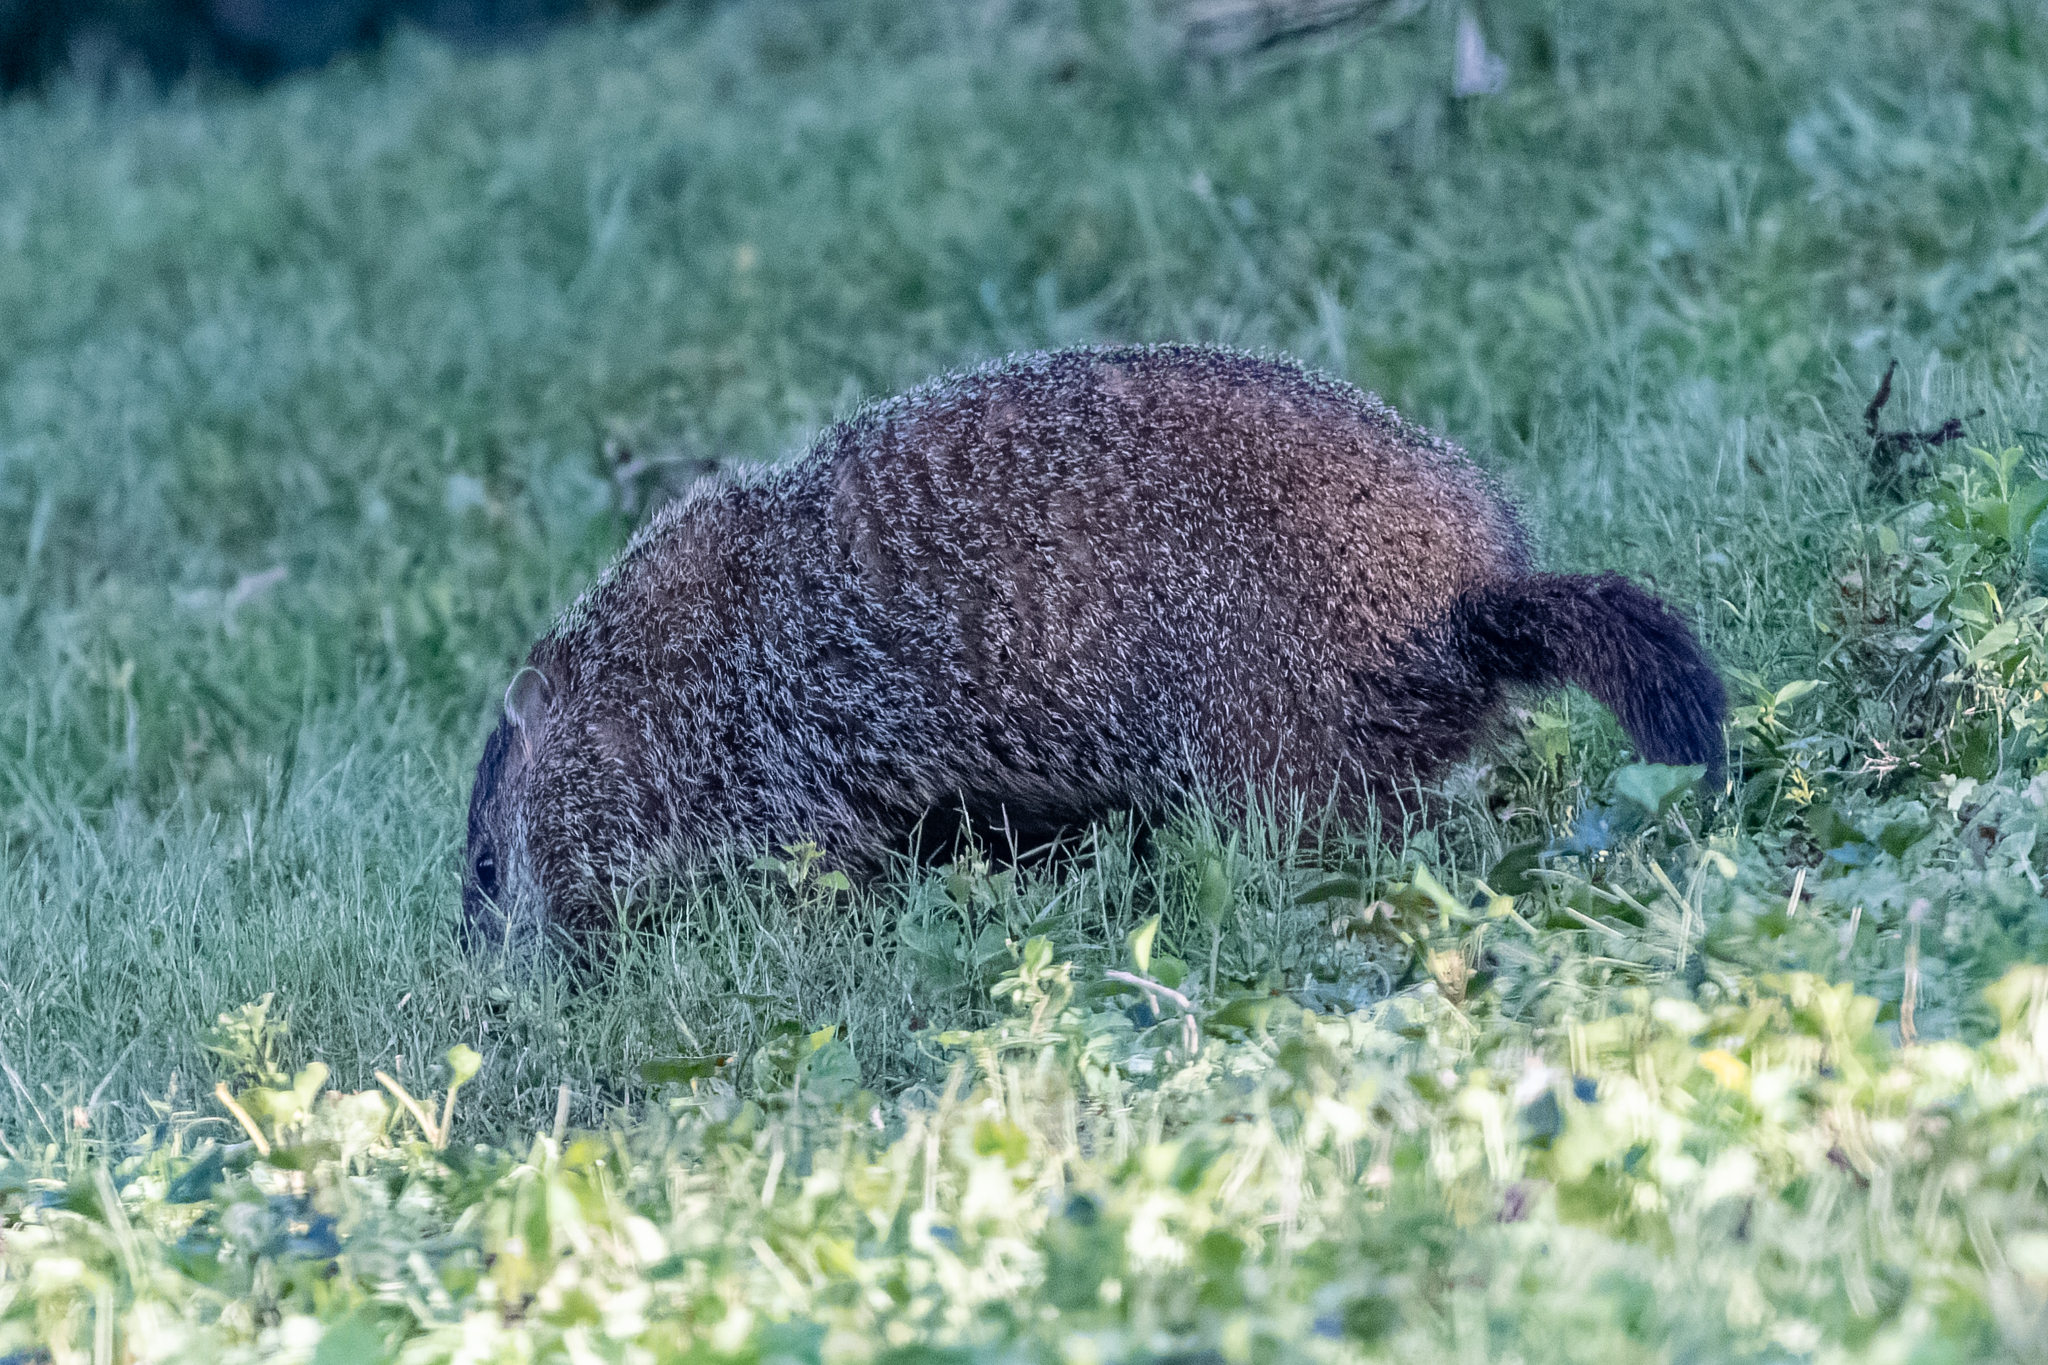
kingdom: Animalia
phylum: Chordata
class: Mammalia
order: Rodentia
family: Sciuridae
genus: Marmota
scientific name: Marmota monax
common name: Groundhog
